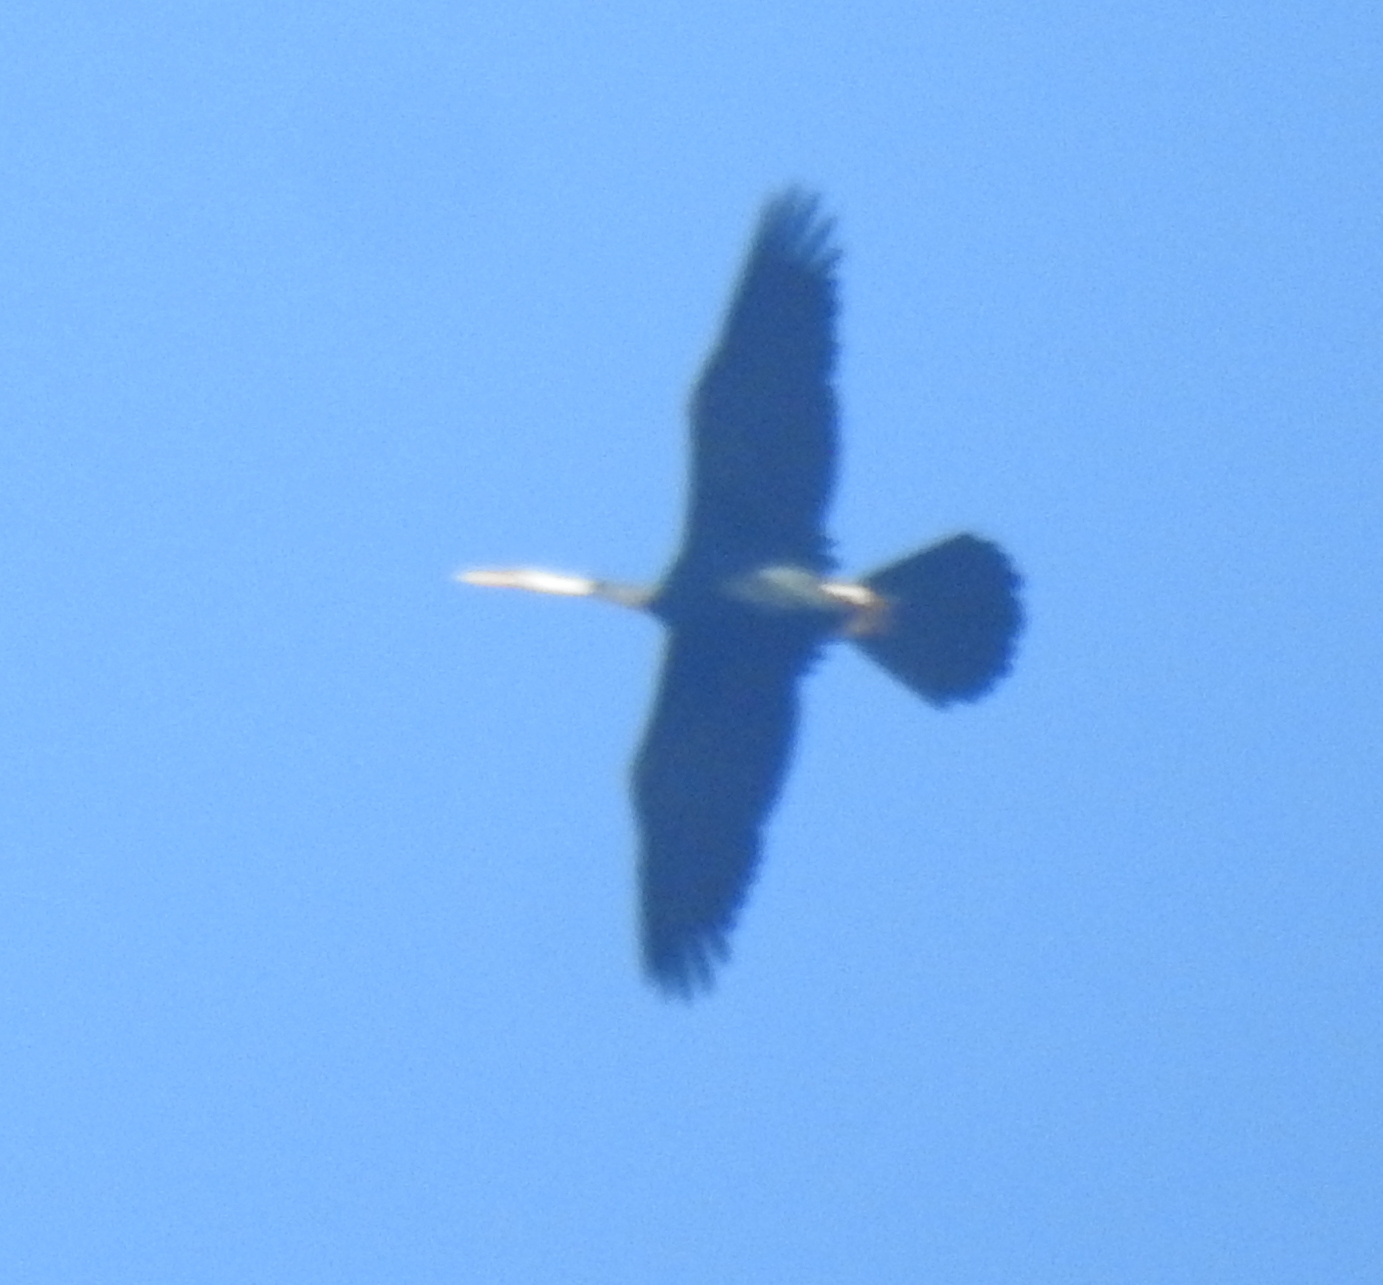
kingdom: Animalia
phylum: Chordata
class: Aves
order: Suliformes
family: Anhingidae
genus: Anhinga
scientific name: Anhinga melanogaster
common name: Oriental darter
